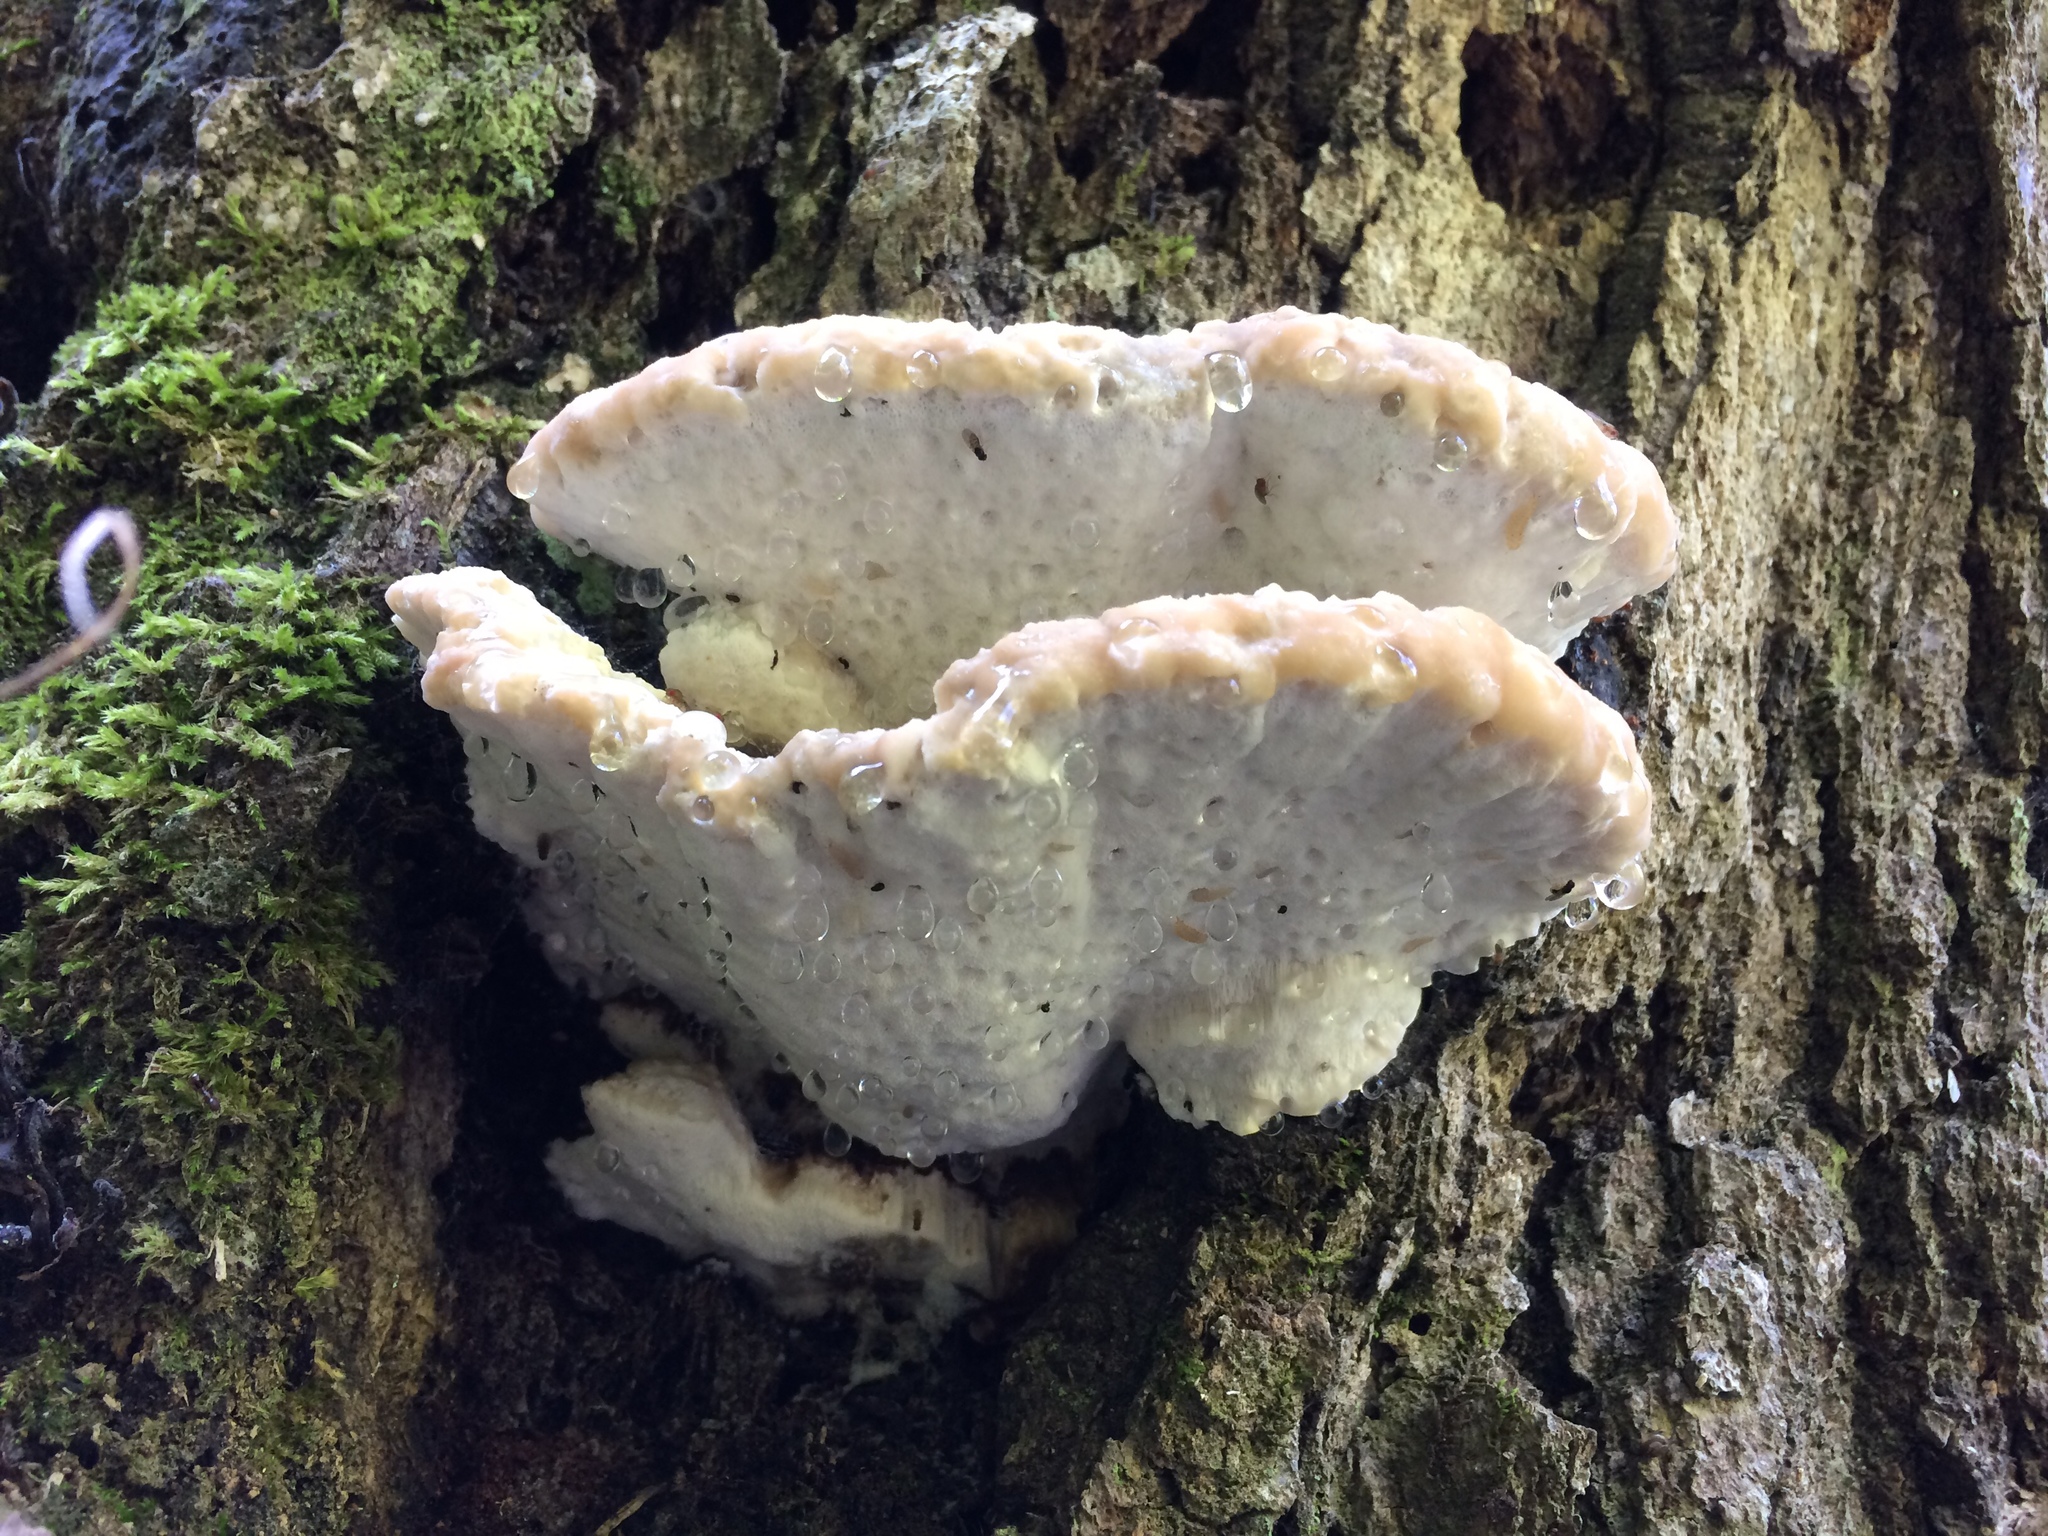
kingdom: Fungi
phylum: Basidiomycota
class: Agaricomycetes
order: Polyporales
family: Fomitopsidaceae
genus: Niveoporofomes
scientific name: Niveoporofomes spraguei
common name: Green cheese polypore
